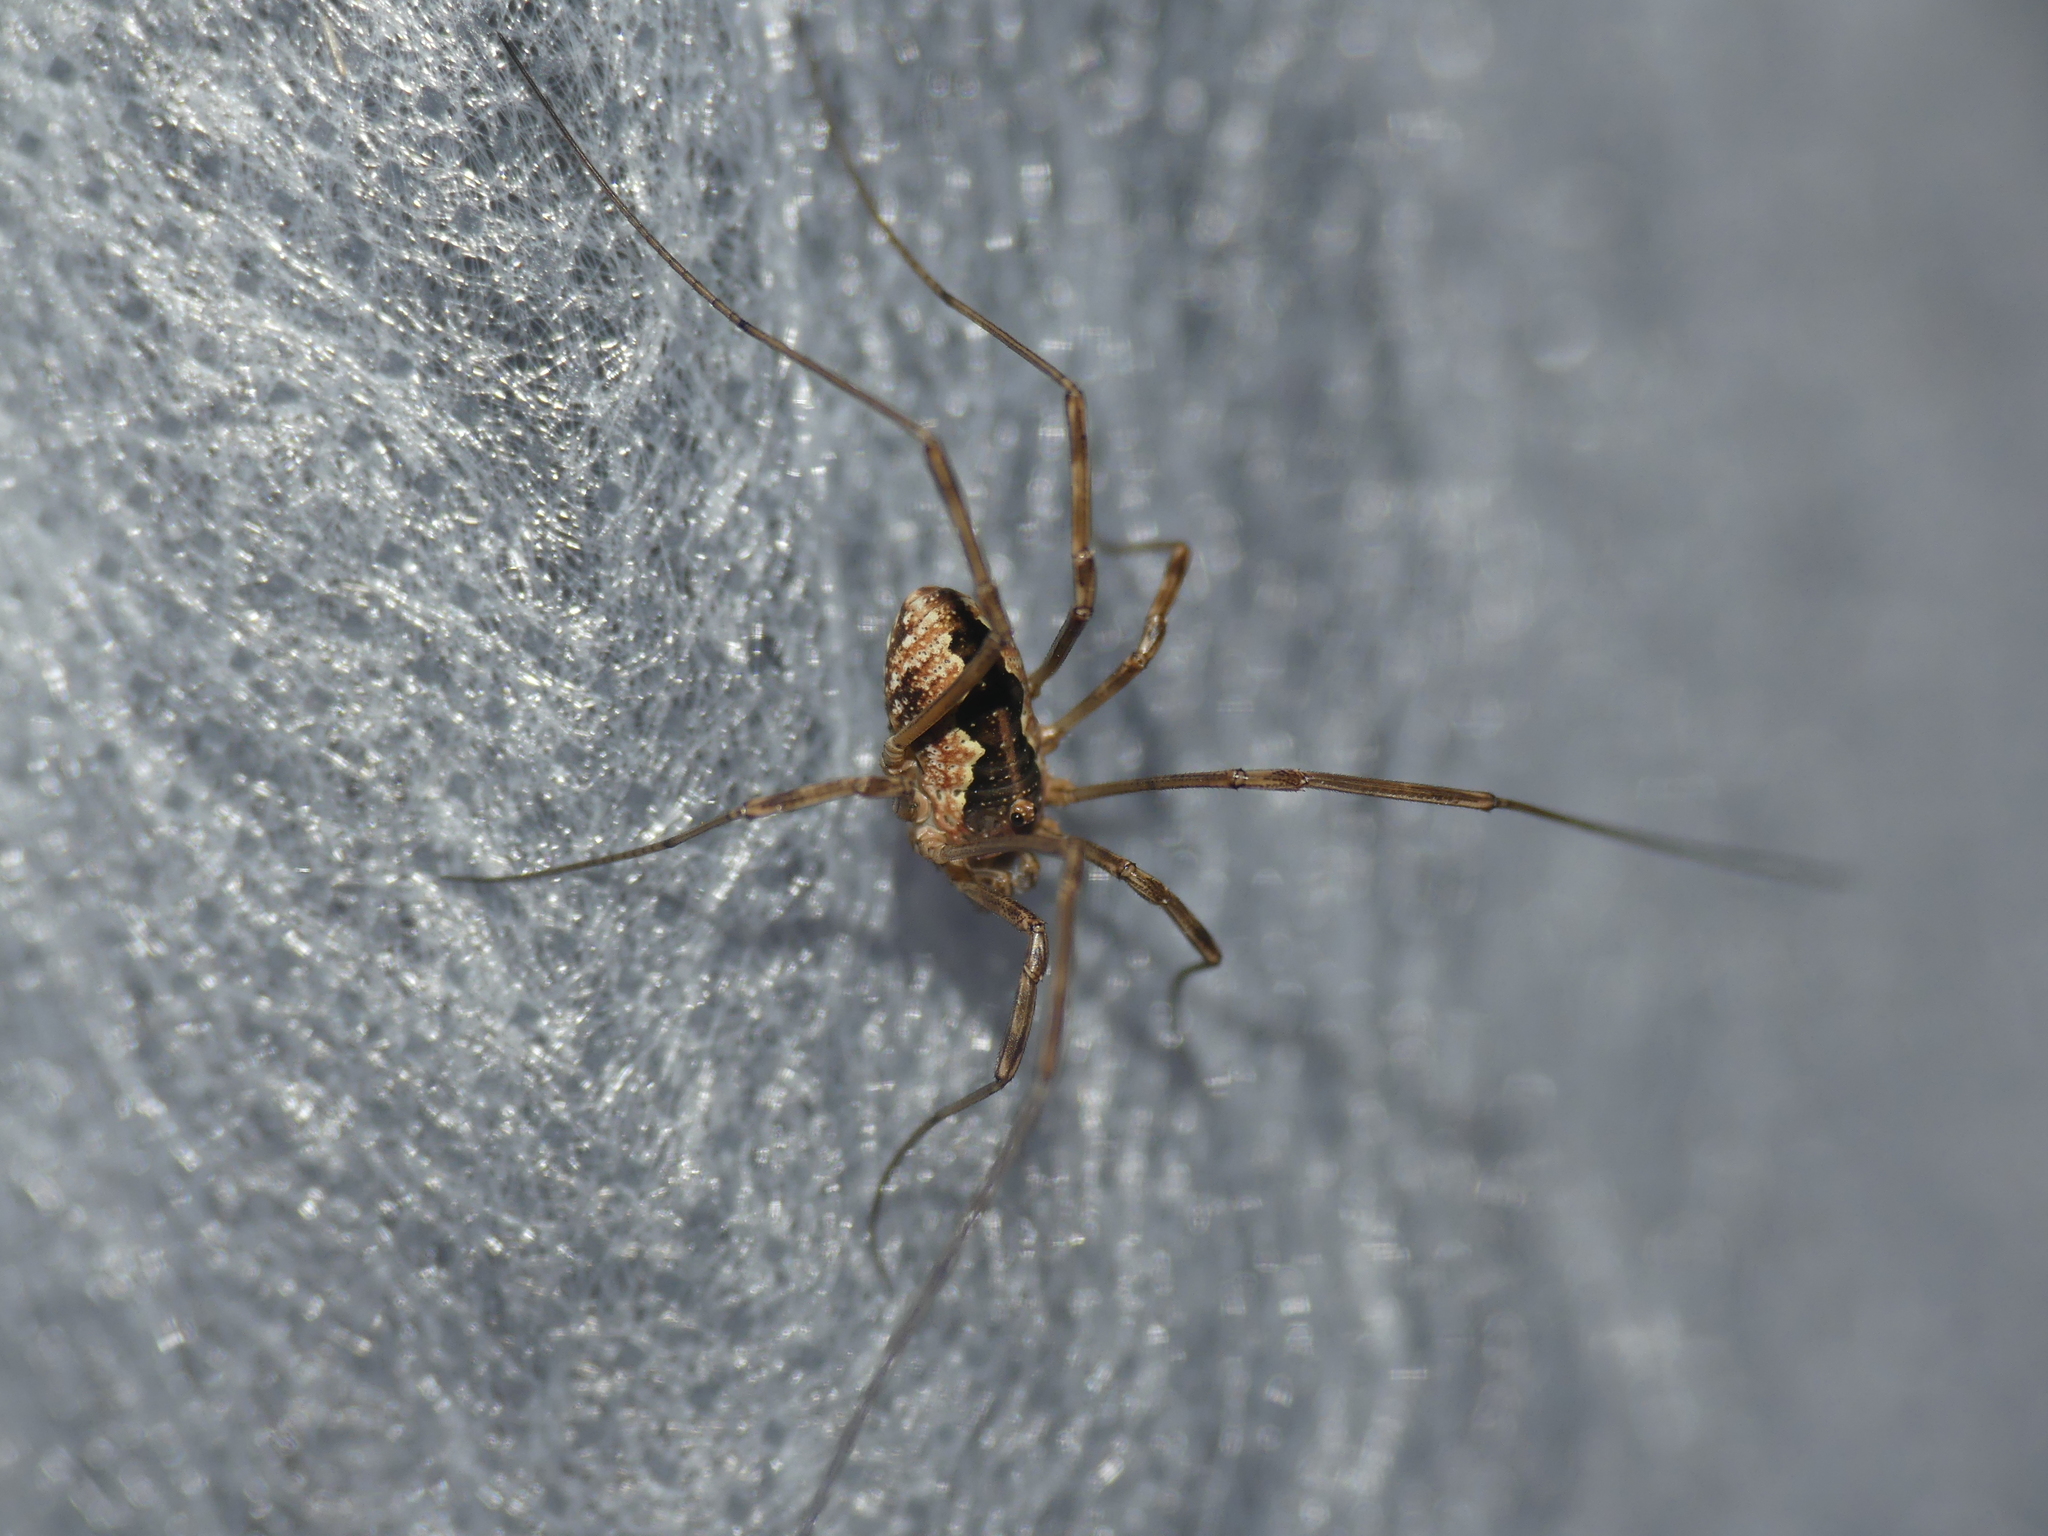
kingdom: Animalia
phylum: Arthropoda
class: Arachnida
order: Opiliones
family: Phalangiidae
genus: Mitopus
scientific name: Mitopus morio
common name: Saddleback harvestman
